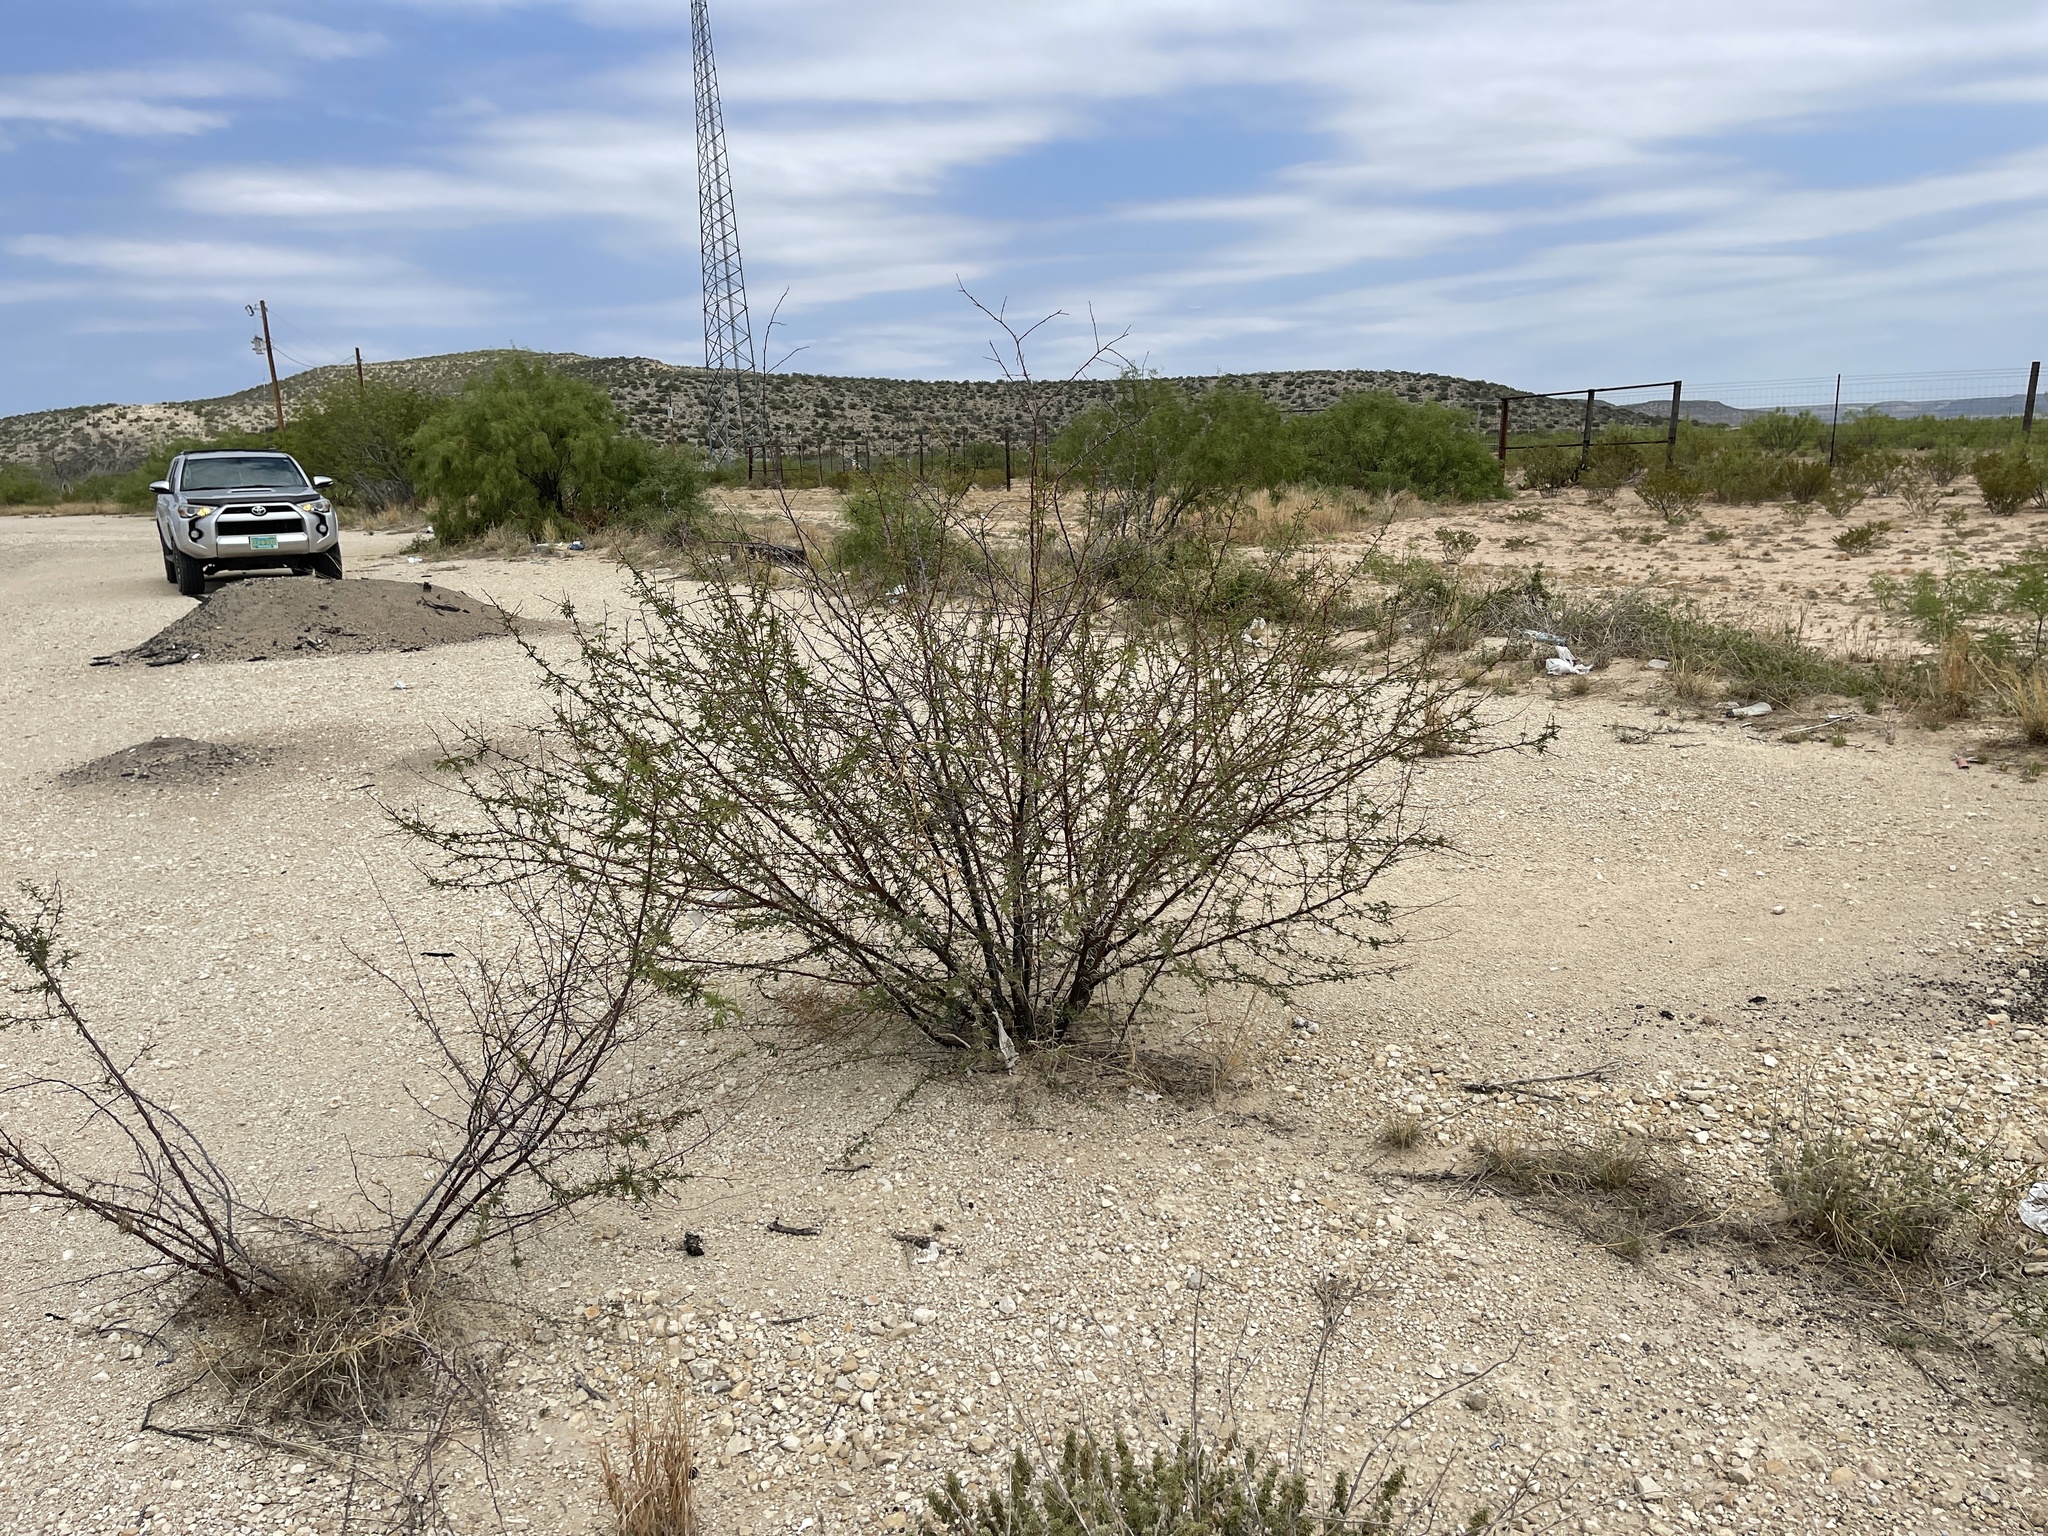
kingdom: Plantae
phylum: Tracheophyta
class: Magnoliopsida
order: Fabales
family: Fabaceae
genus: Vachellia
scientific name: Vachellia constricta
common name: Mescat acacia
